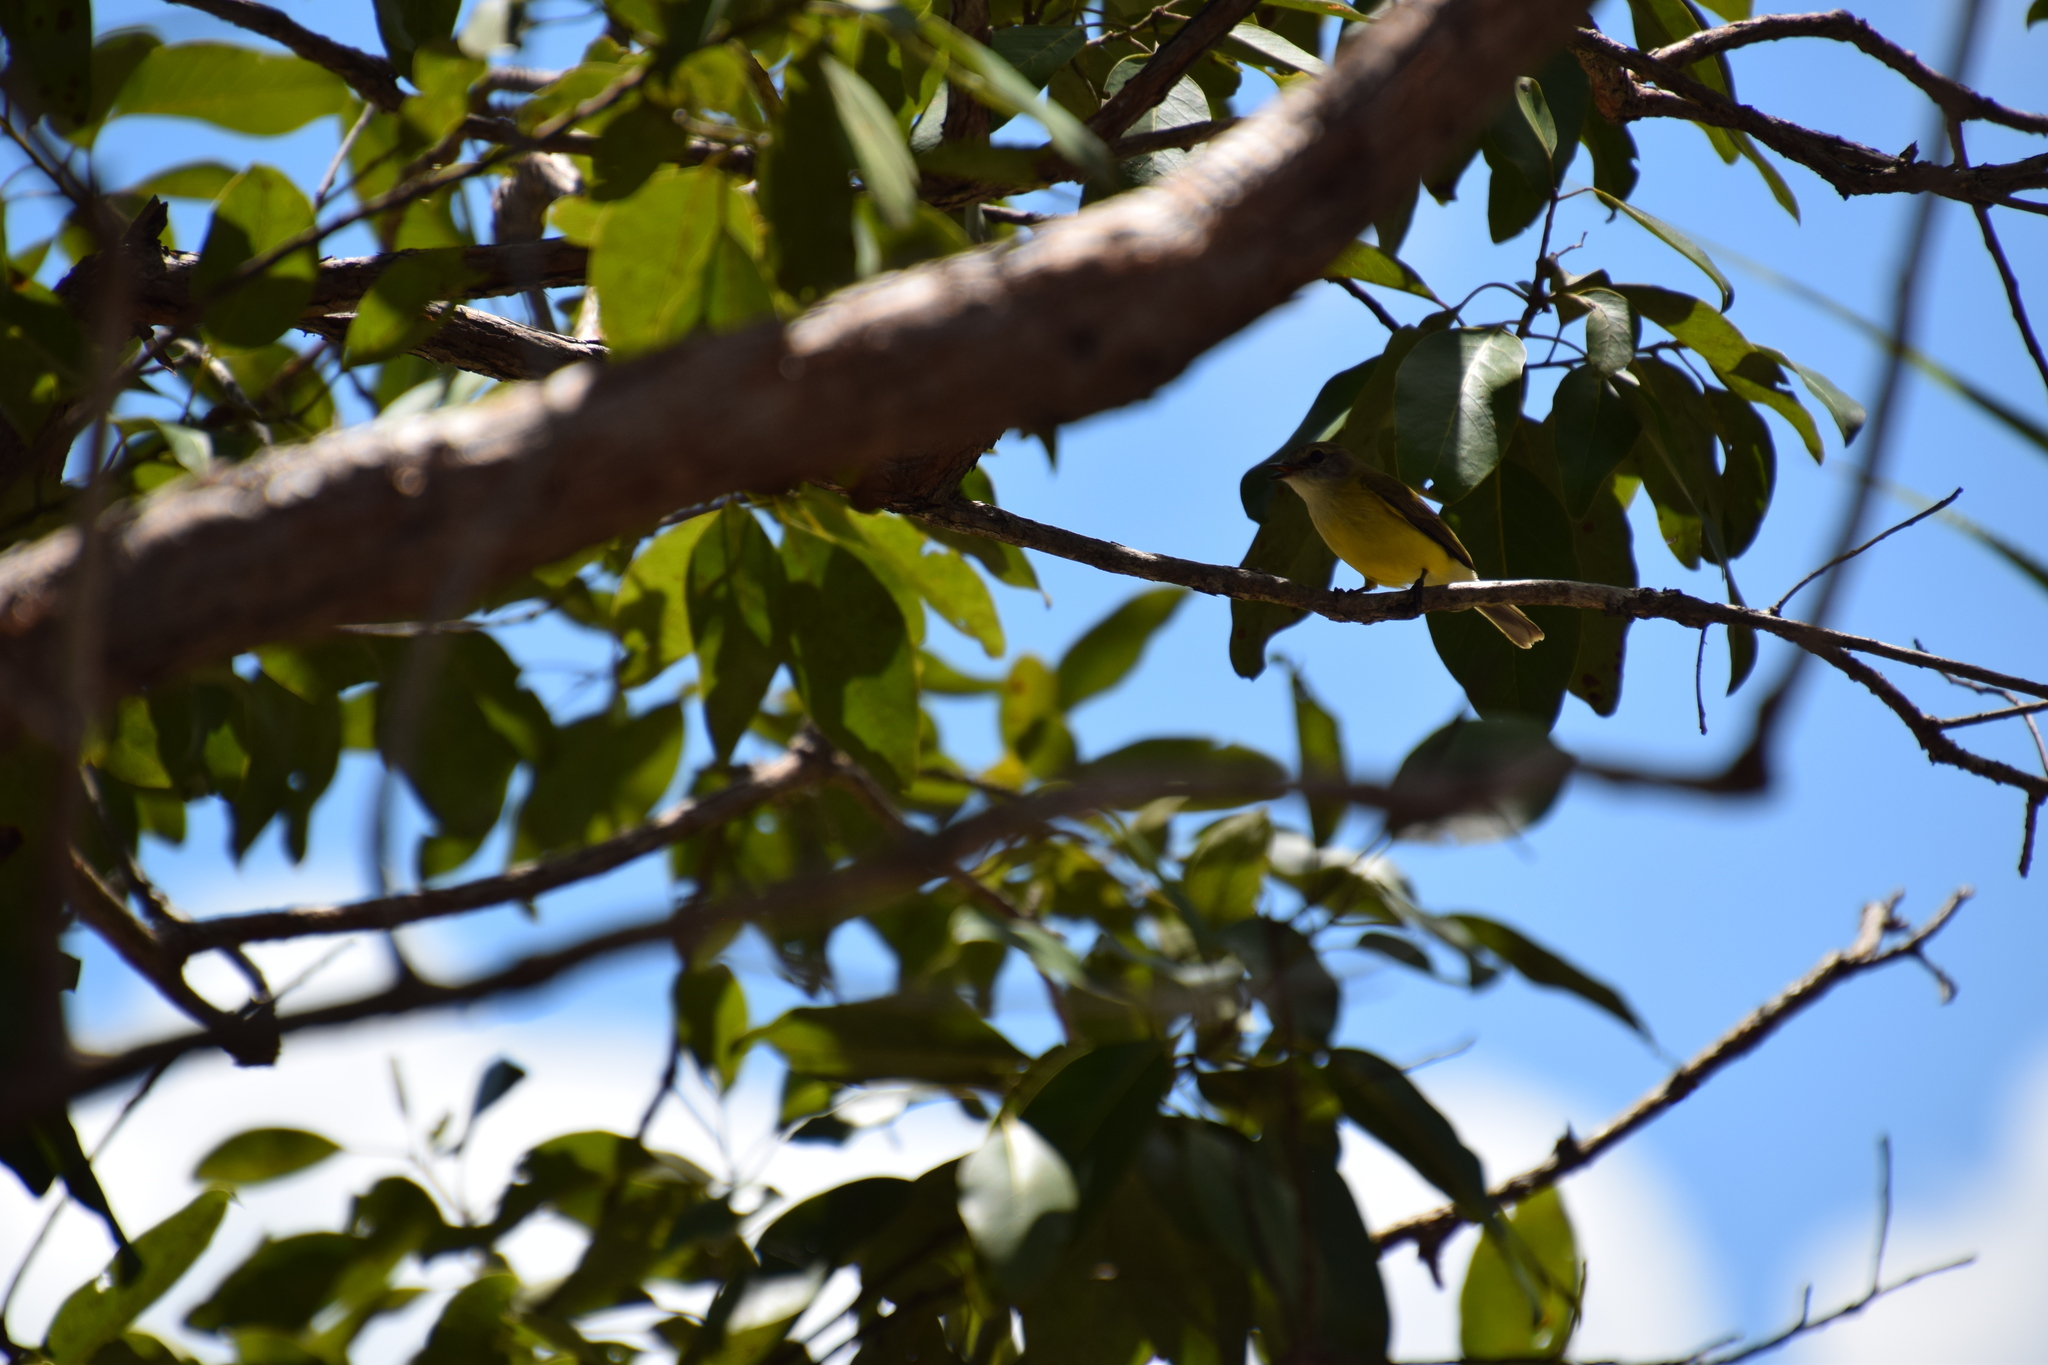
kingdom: Animalia
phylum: Chordata
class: Aves
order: Passeriformes
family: Petroicidae
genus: Microeca
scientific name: Microeca flavigaster
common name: Lemon-bellied flyrobin
